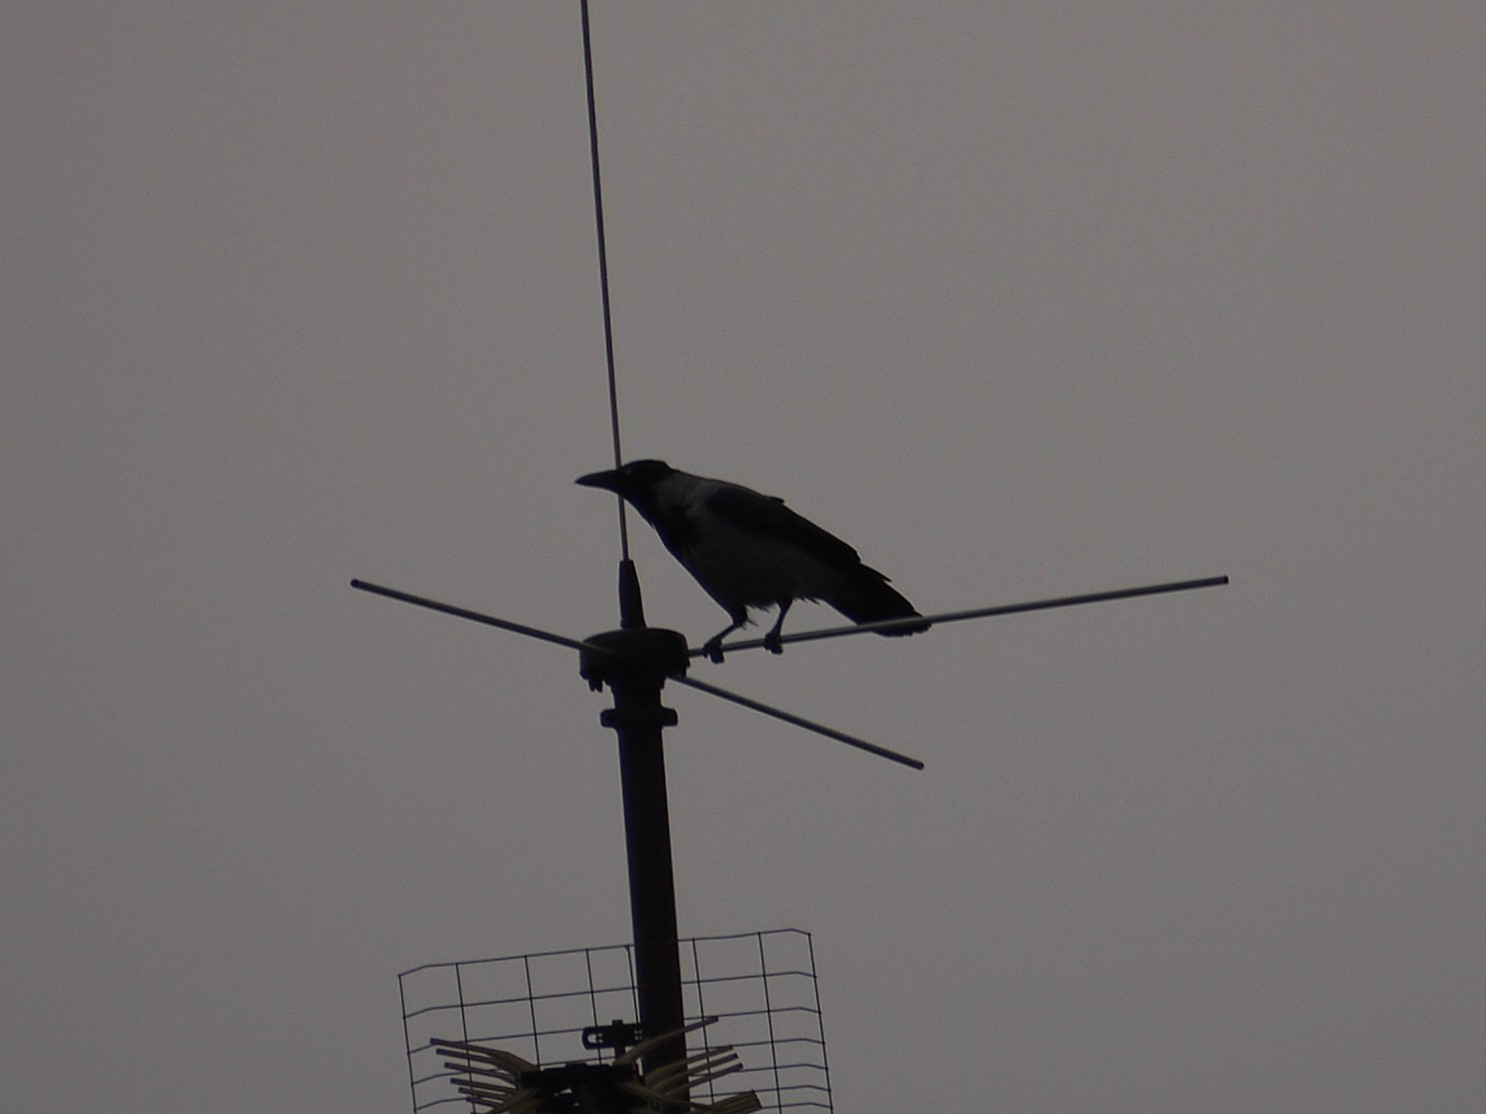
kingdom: Animalia
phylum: Chordata
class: Aves
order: Passeriformes
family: Corvidae
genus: Corvus
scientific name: Corvus cornix
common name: Hooded crow
